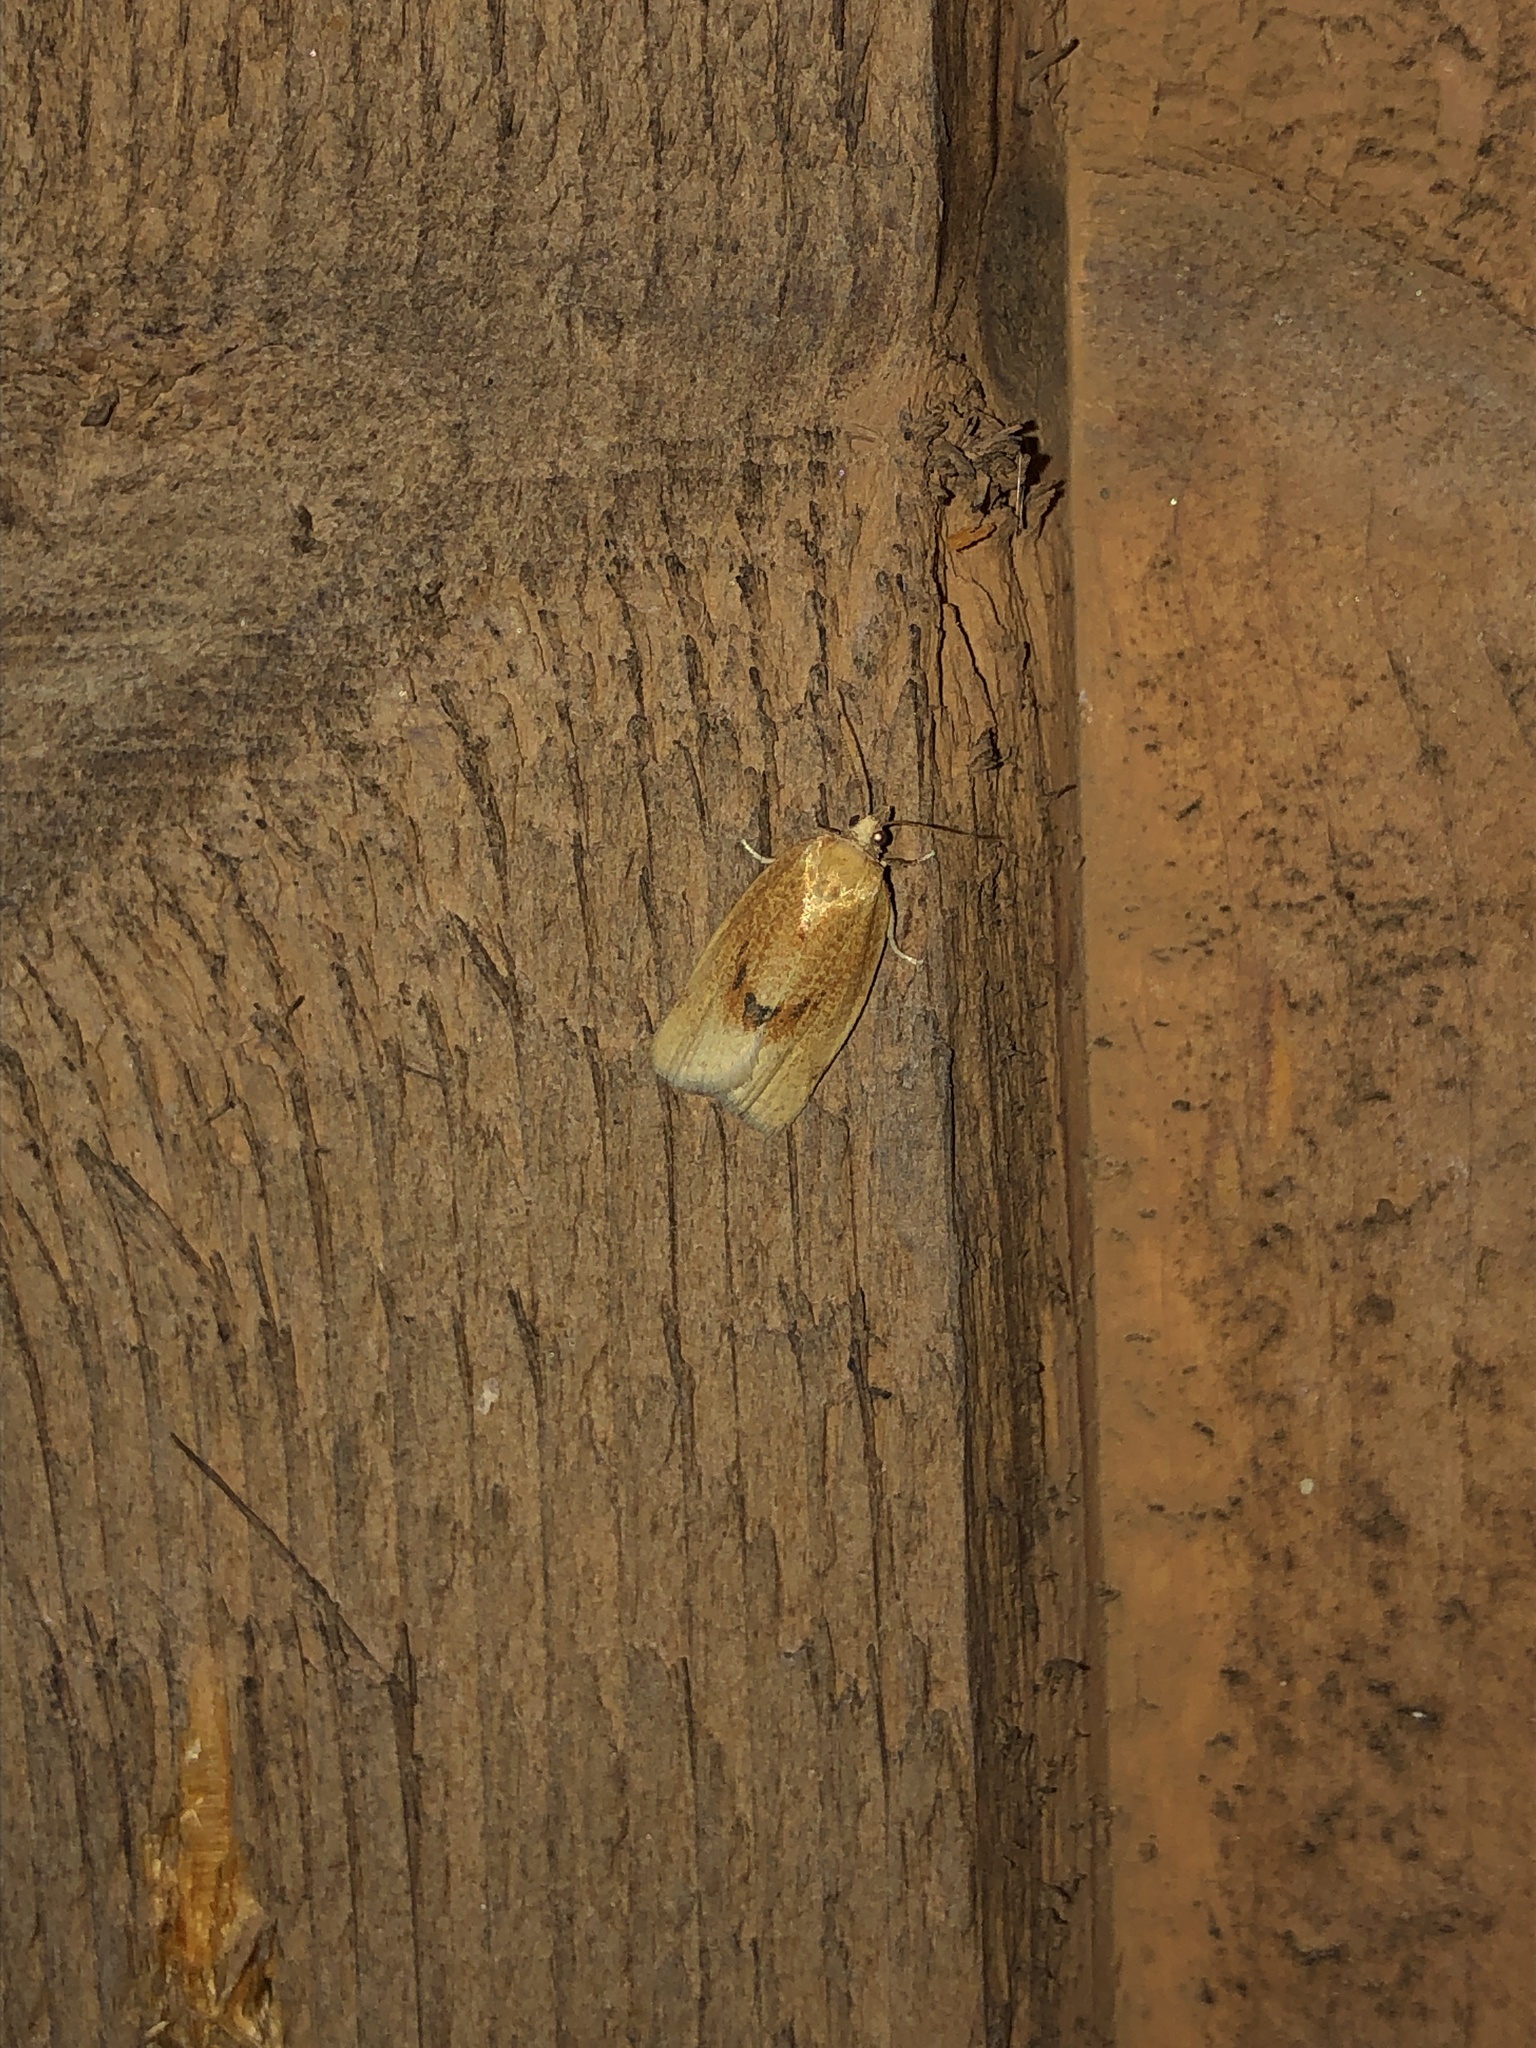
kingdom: Animalia
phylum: Arthropoda
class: Insecta
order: Lepidoptera
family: Tortricidae
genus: Argyrotaenia
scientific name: Argyrotaenia dorsalana
